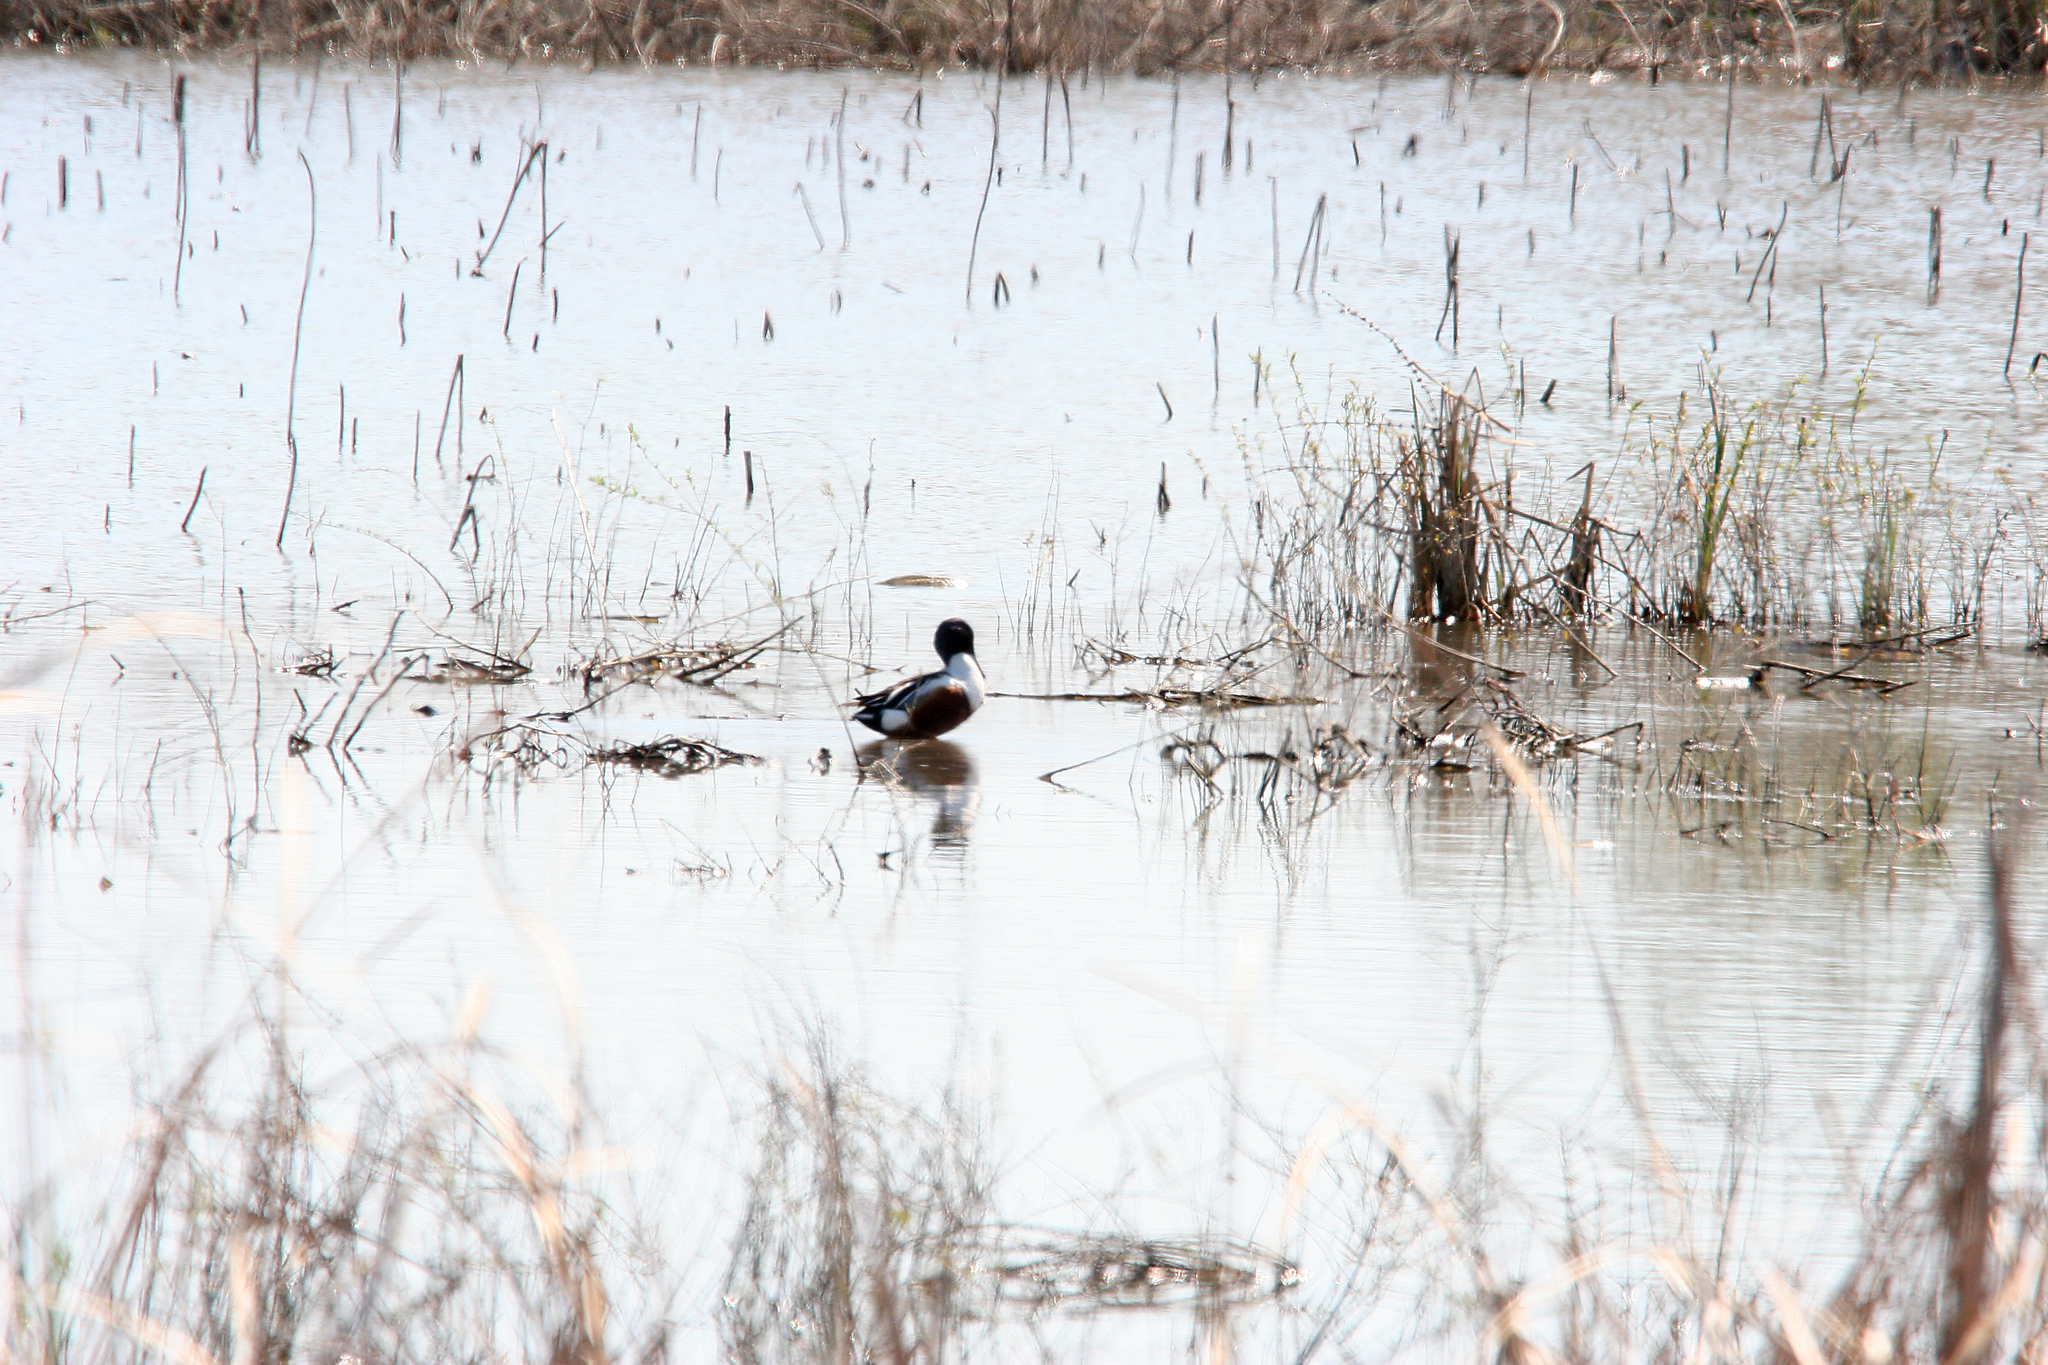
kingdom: Animalia
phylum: Chordata
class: Aves
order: Anseriformes
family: Anatidae
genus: Spatula
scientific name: Spatula clypeata
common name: Northern shoveler
